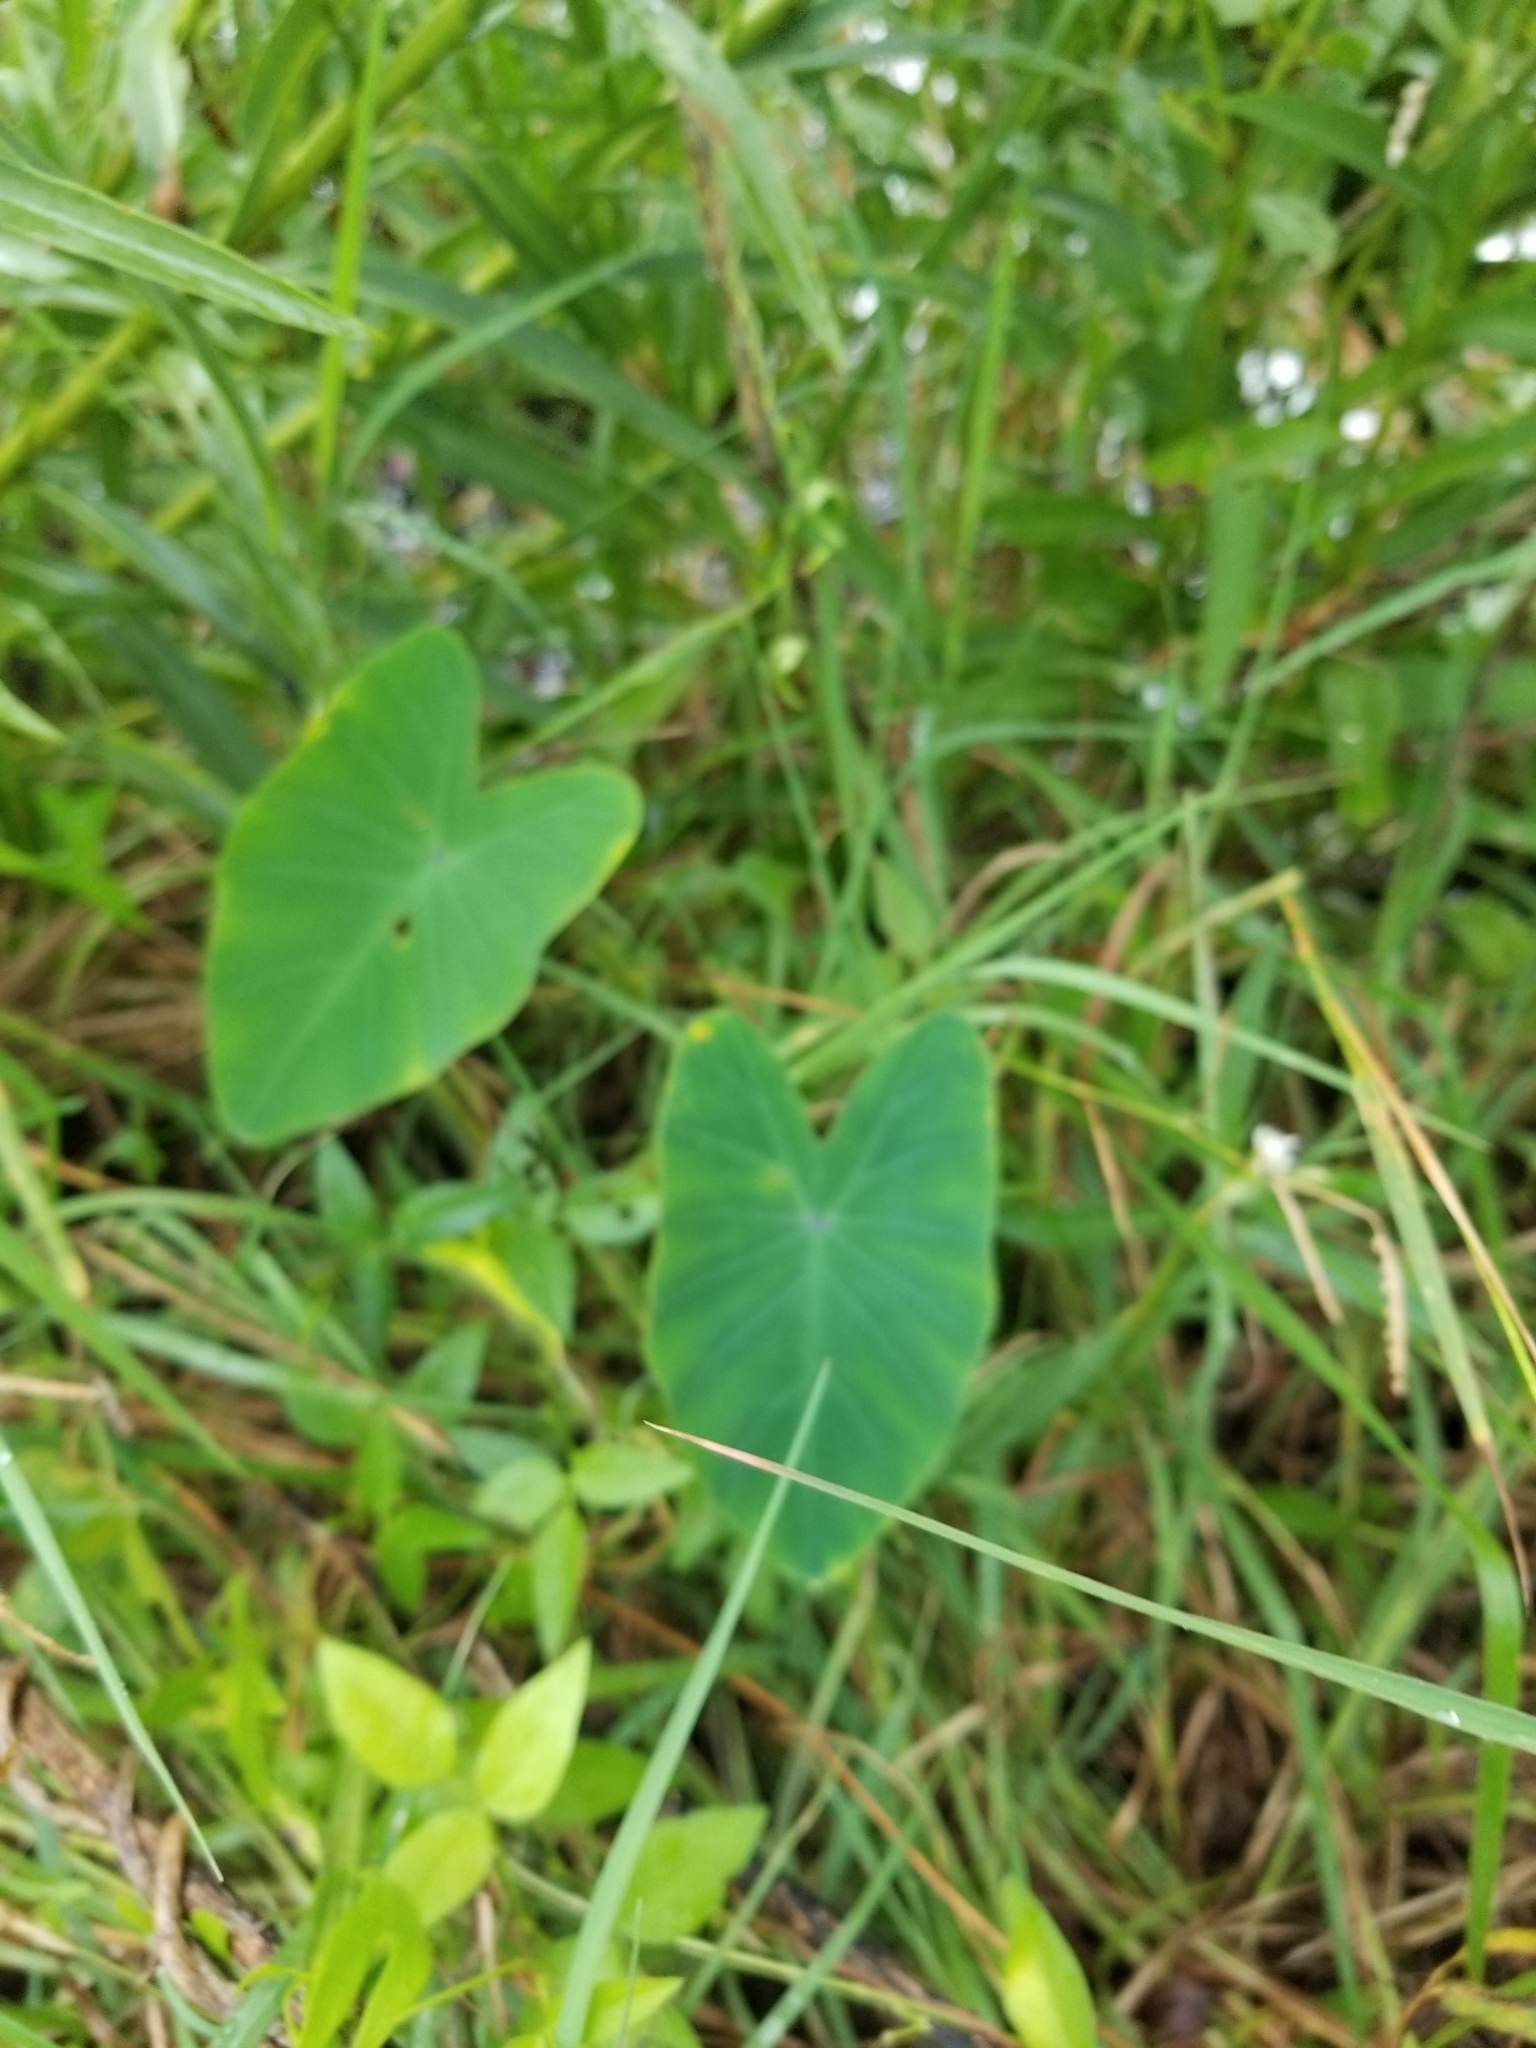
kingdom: Plantae
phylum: Tracheophyta
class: Liliopsida
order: Alismatales
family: Araceae
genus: Colocasia
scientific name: Colocasia esculenta
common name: Taro
